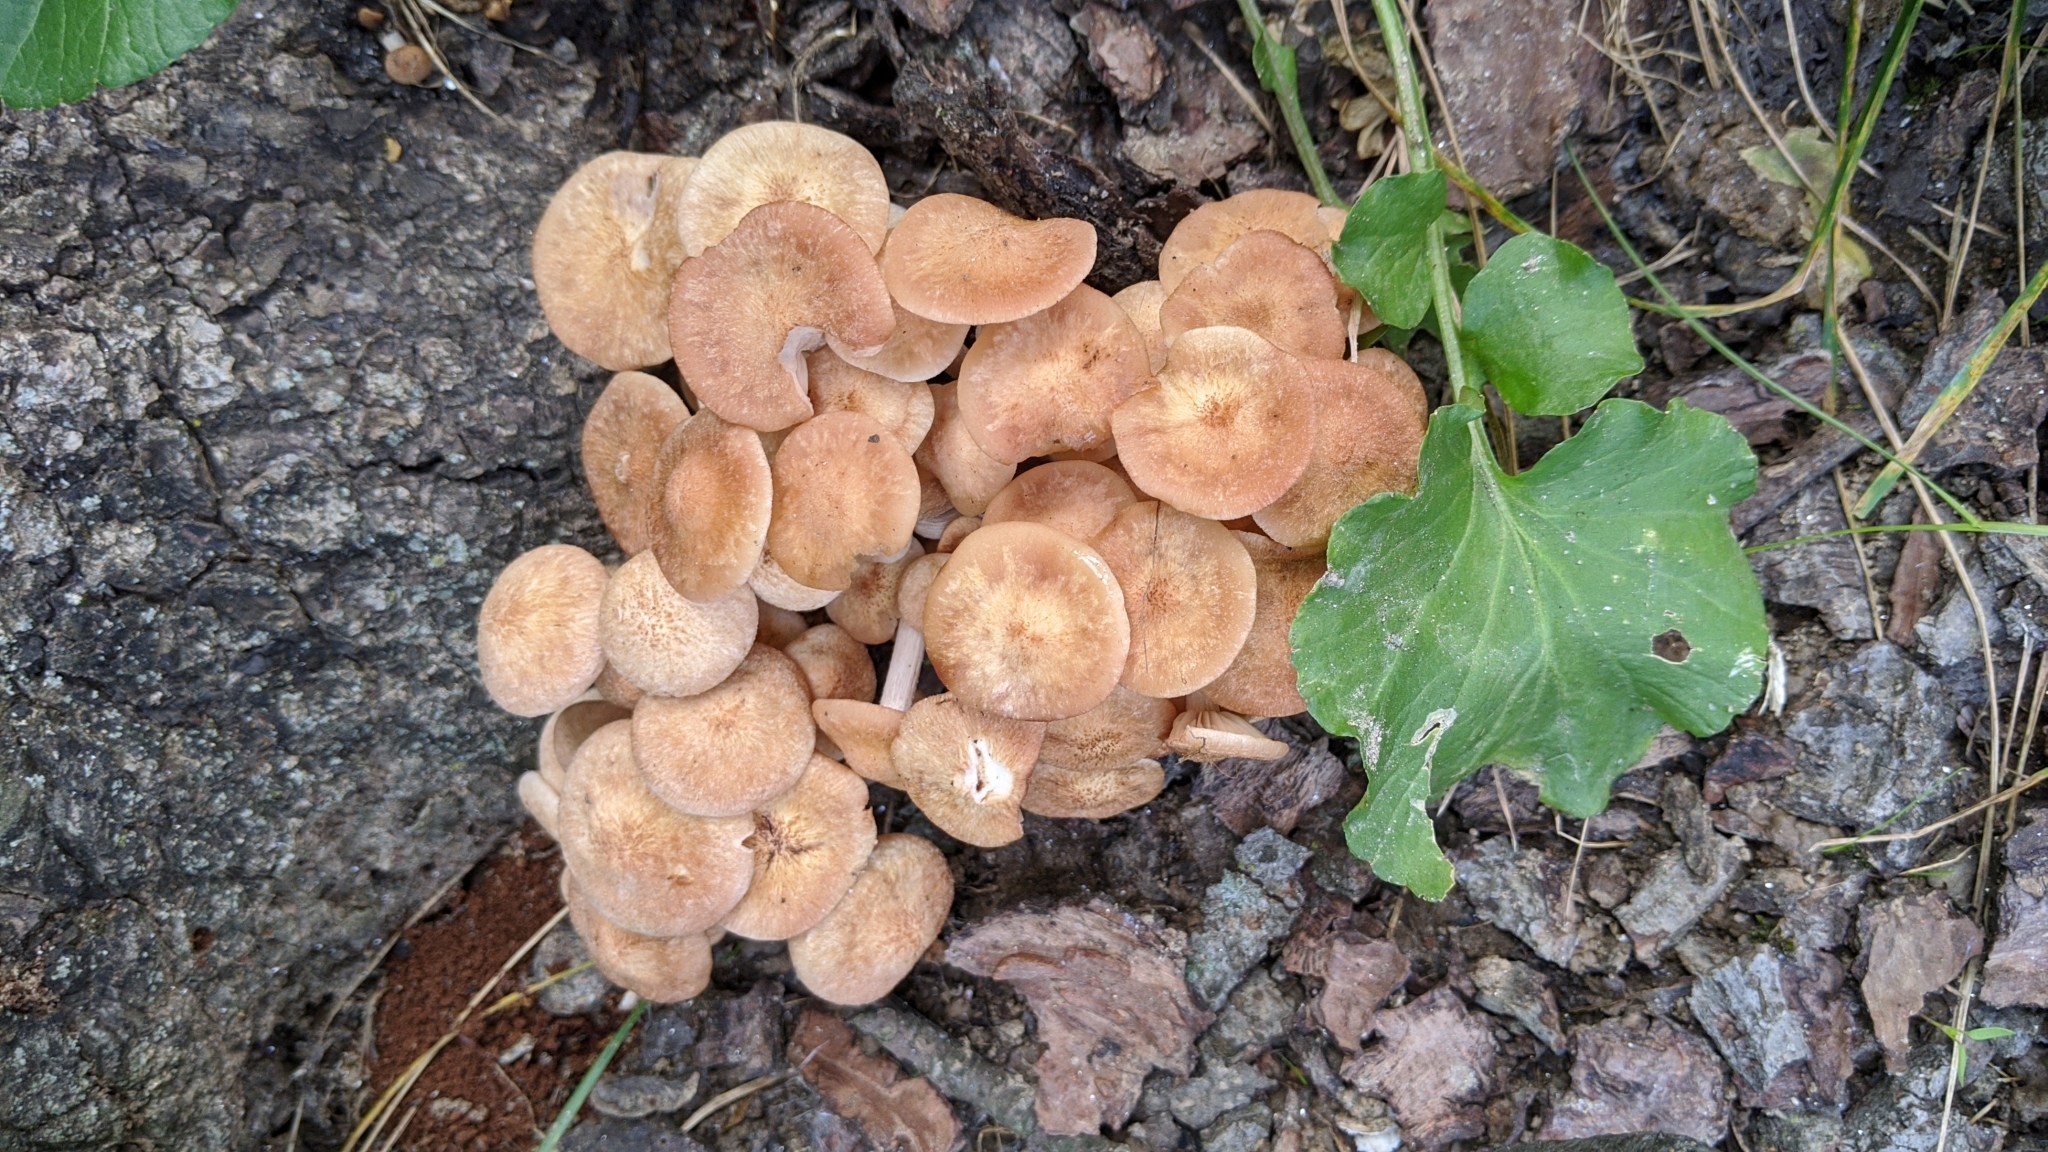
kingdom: Fungi
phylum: Basidiomycota
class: Agaricomycetes
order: Agaricales
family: Physalacriaceae
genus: Desarmillaria
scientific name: Desarmillaria caespitosa
